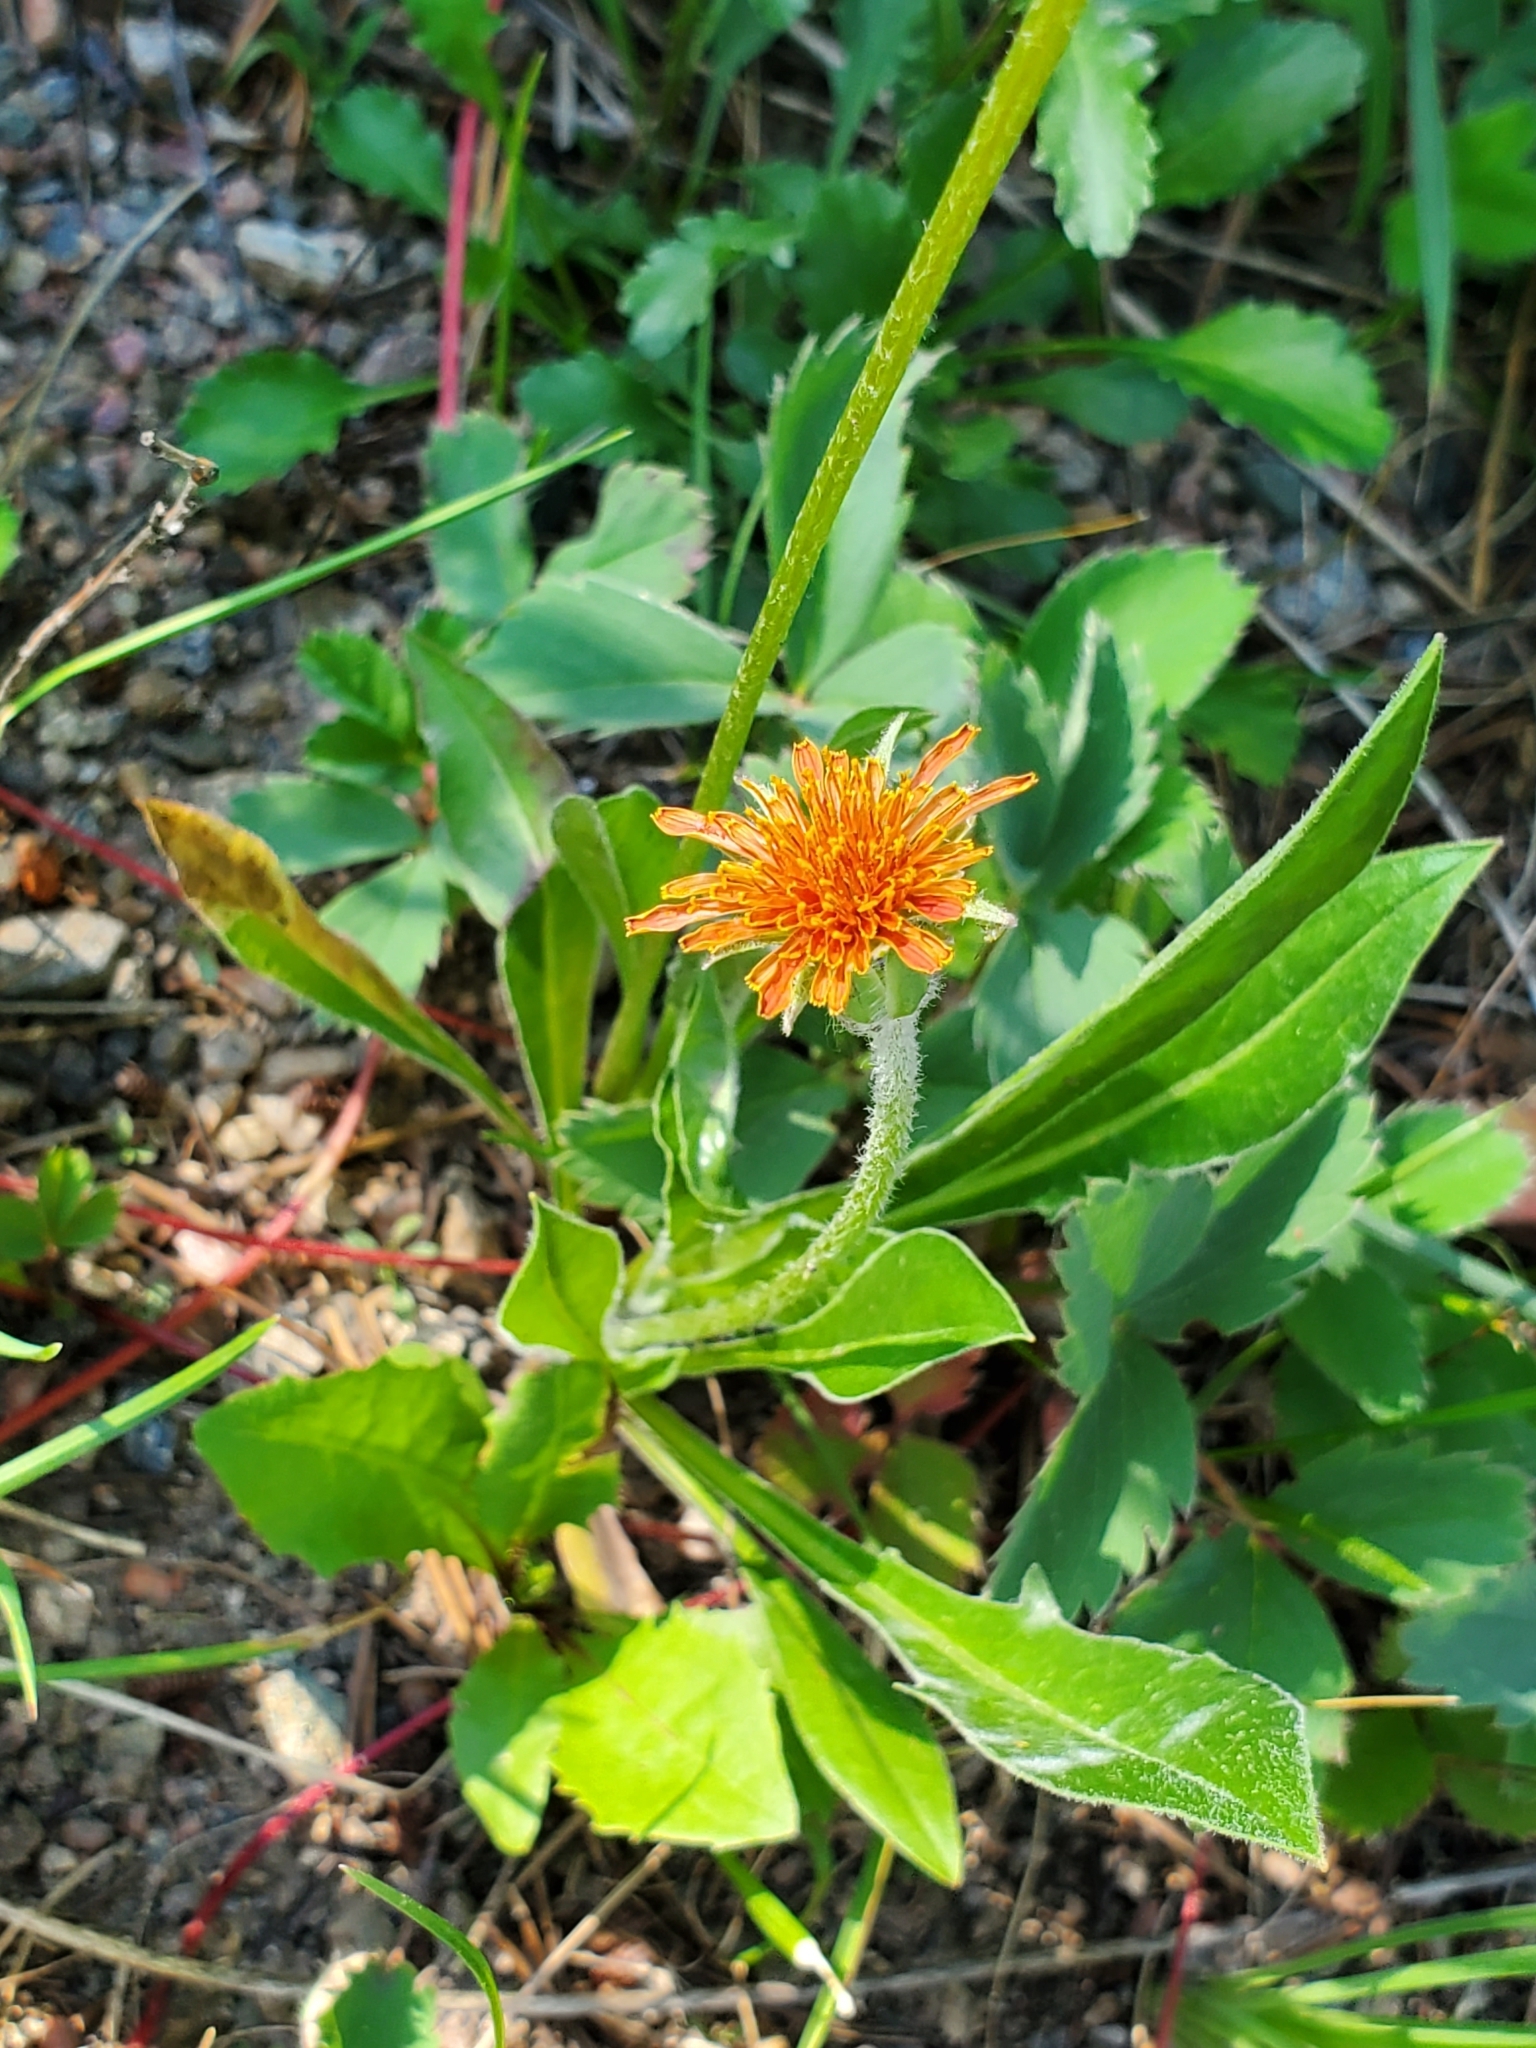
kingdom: Plantae
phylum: Tracheophyta
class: Magnoliopsida
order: Asterales
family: Asteraceae
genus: Agoseris
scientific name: Agoseris aurantiaca
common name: Mountain agoseris
